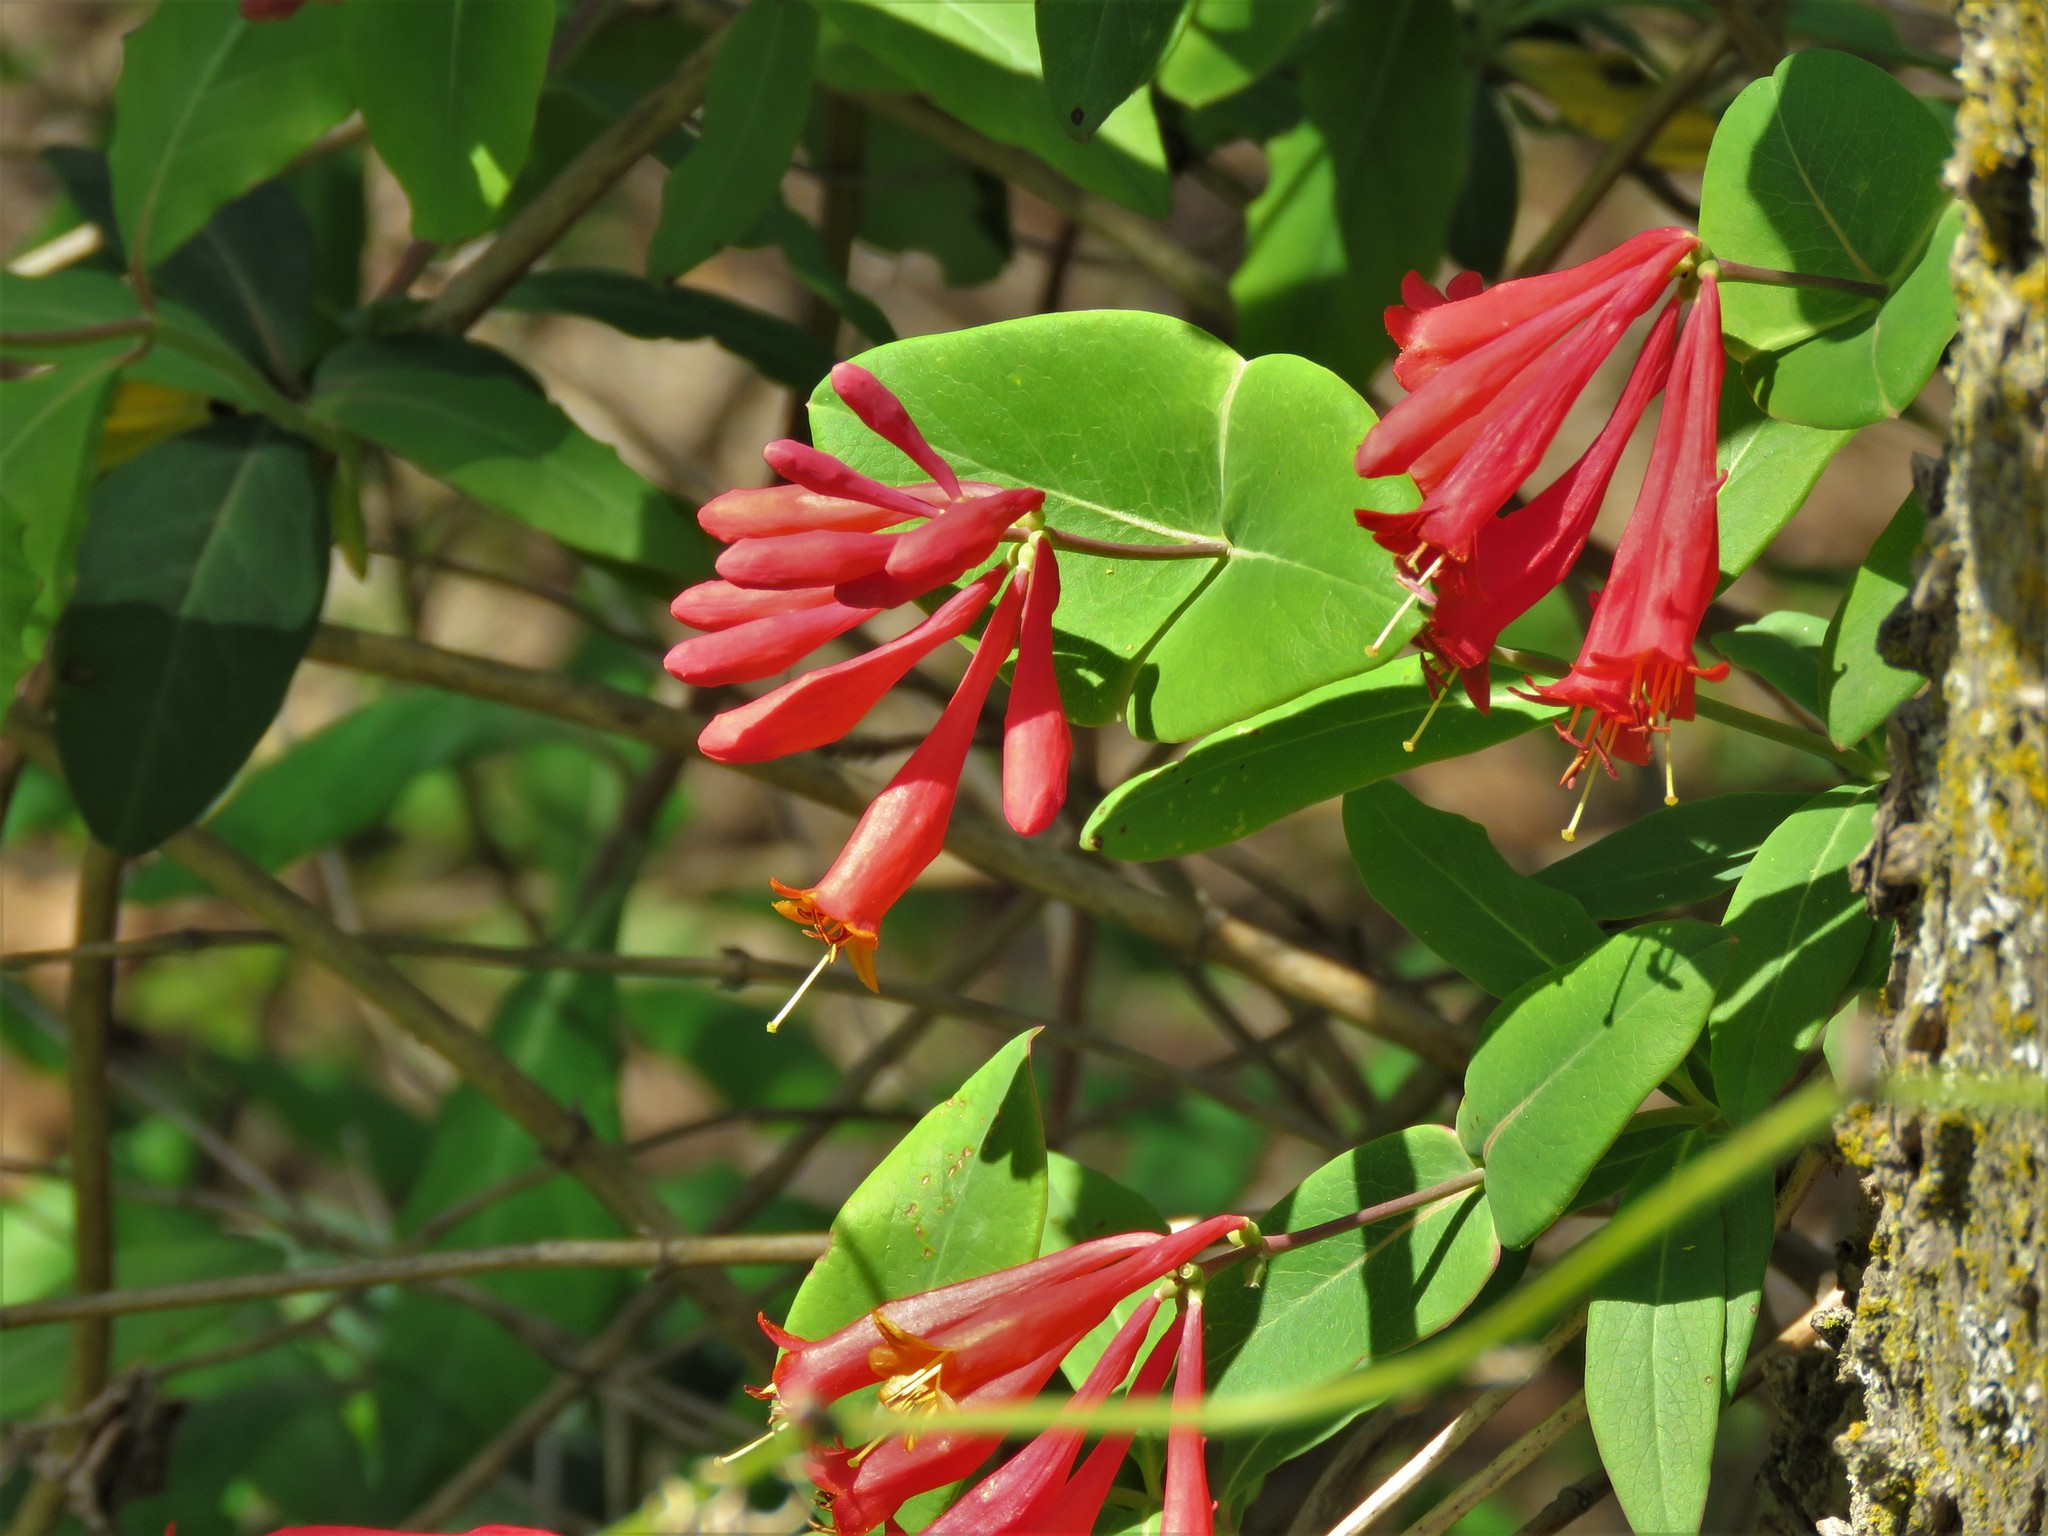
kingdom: Plantae
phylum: Tracheophyta
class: Magnoliopsida
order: Dipsacales
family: Caprifoliaceae
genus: Lonicera
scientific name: Lonicera sempervirens
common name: Coral honeysuckle
